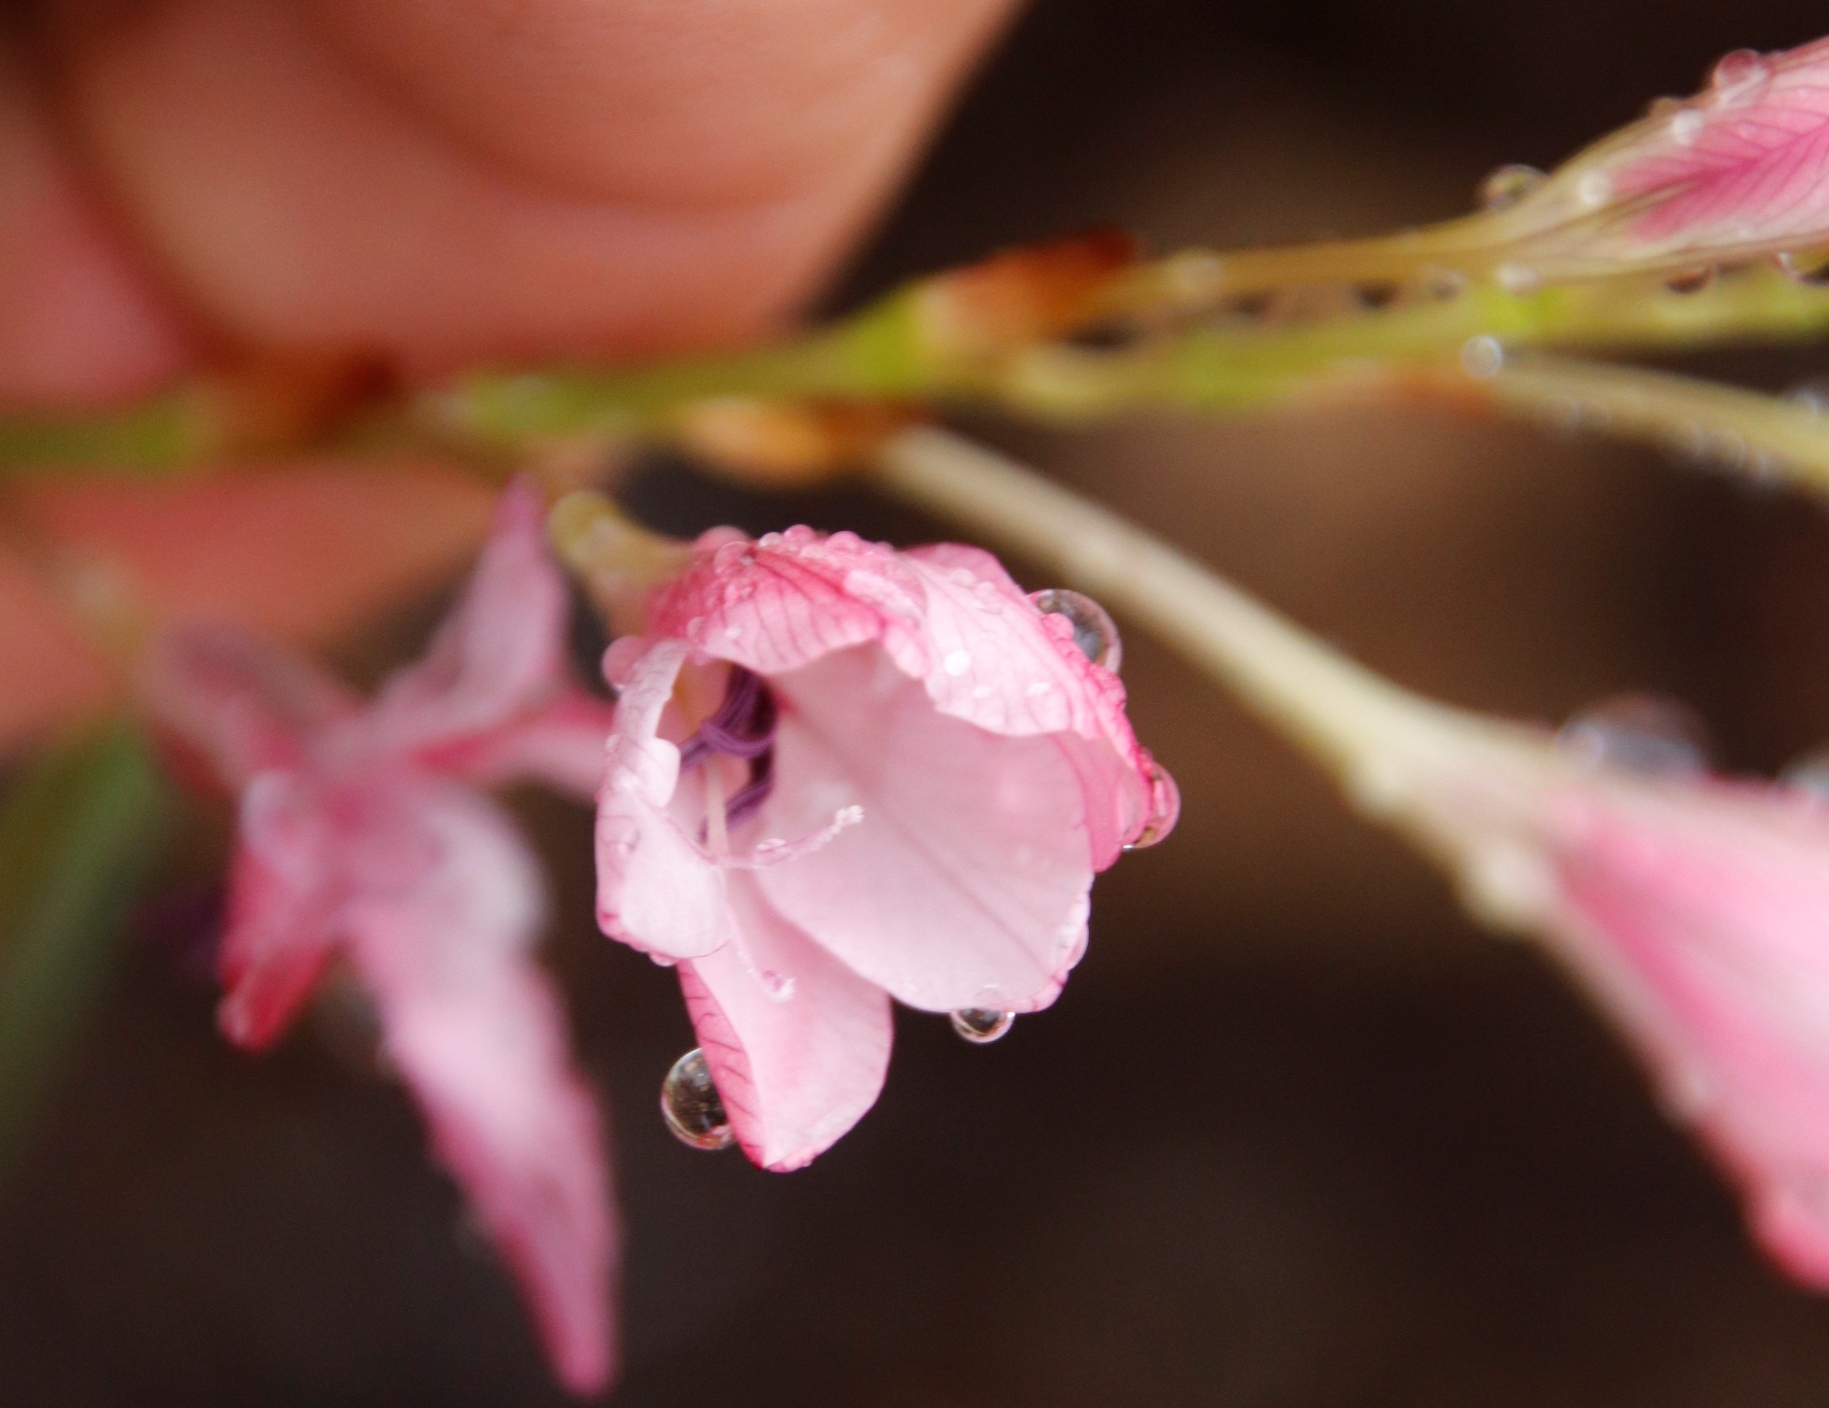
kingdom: Plantae
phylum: Tracheophyta
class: Liliopsida
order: Asparagales
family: Iridaceae
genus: Tritonia
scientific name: Tritonia bakeri
